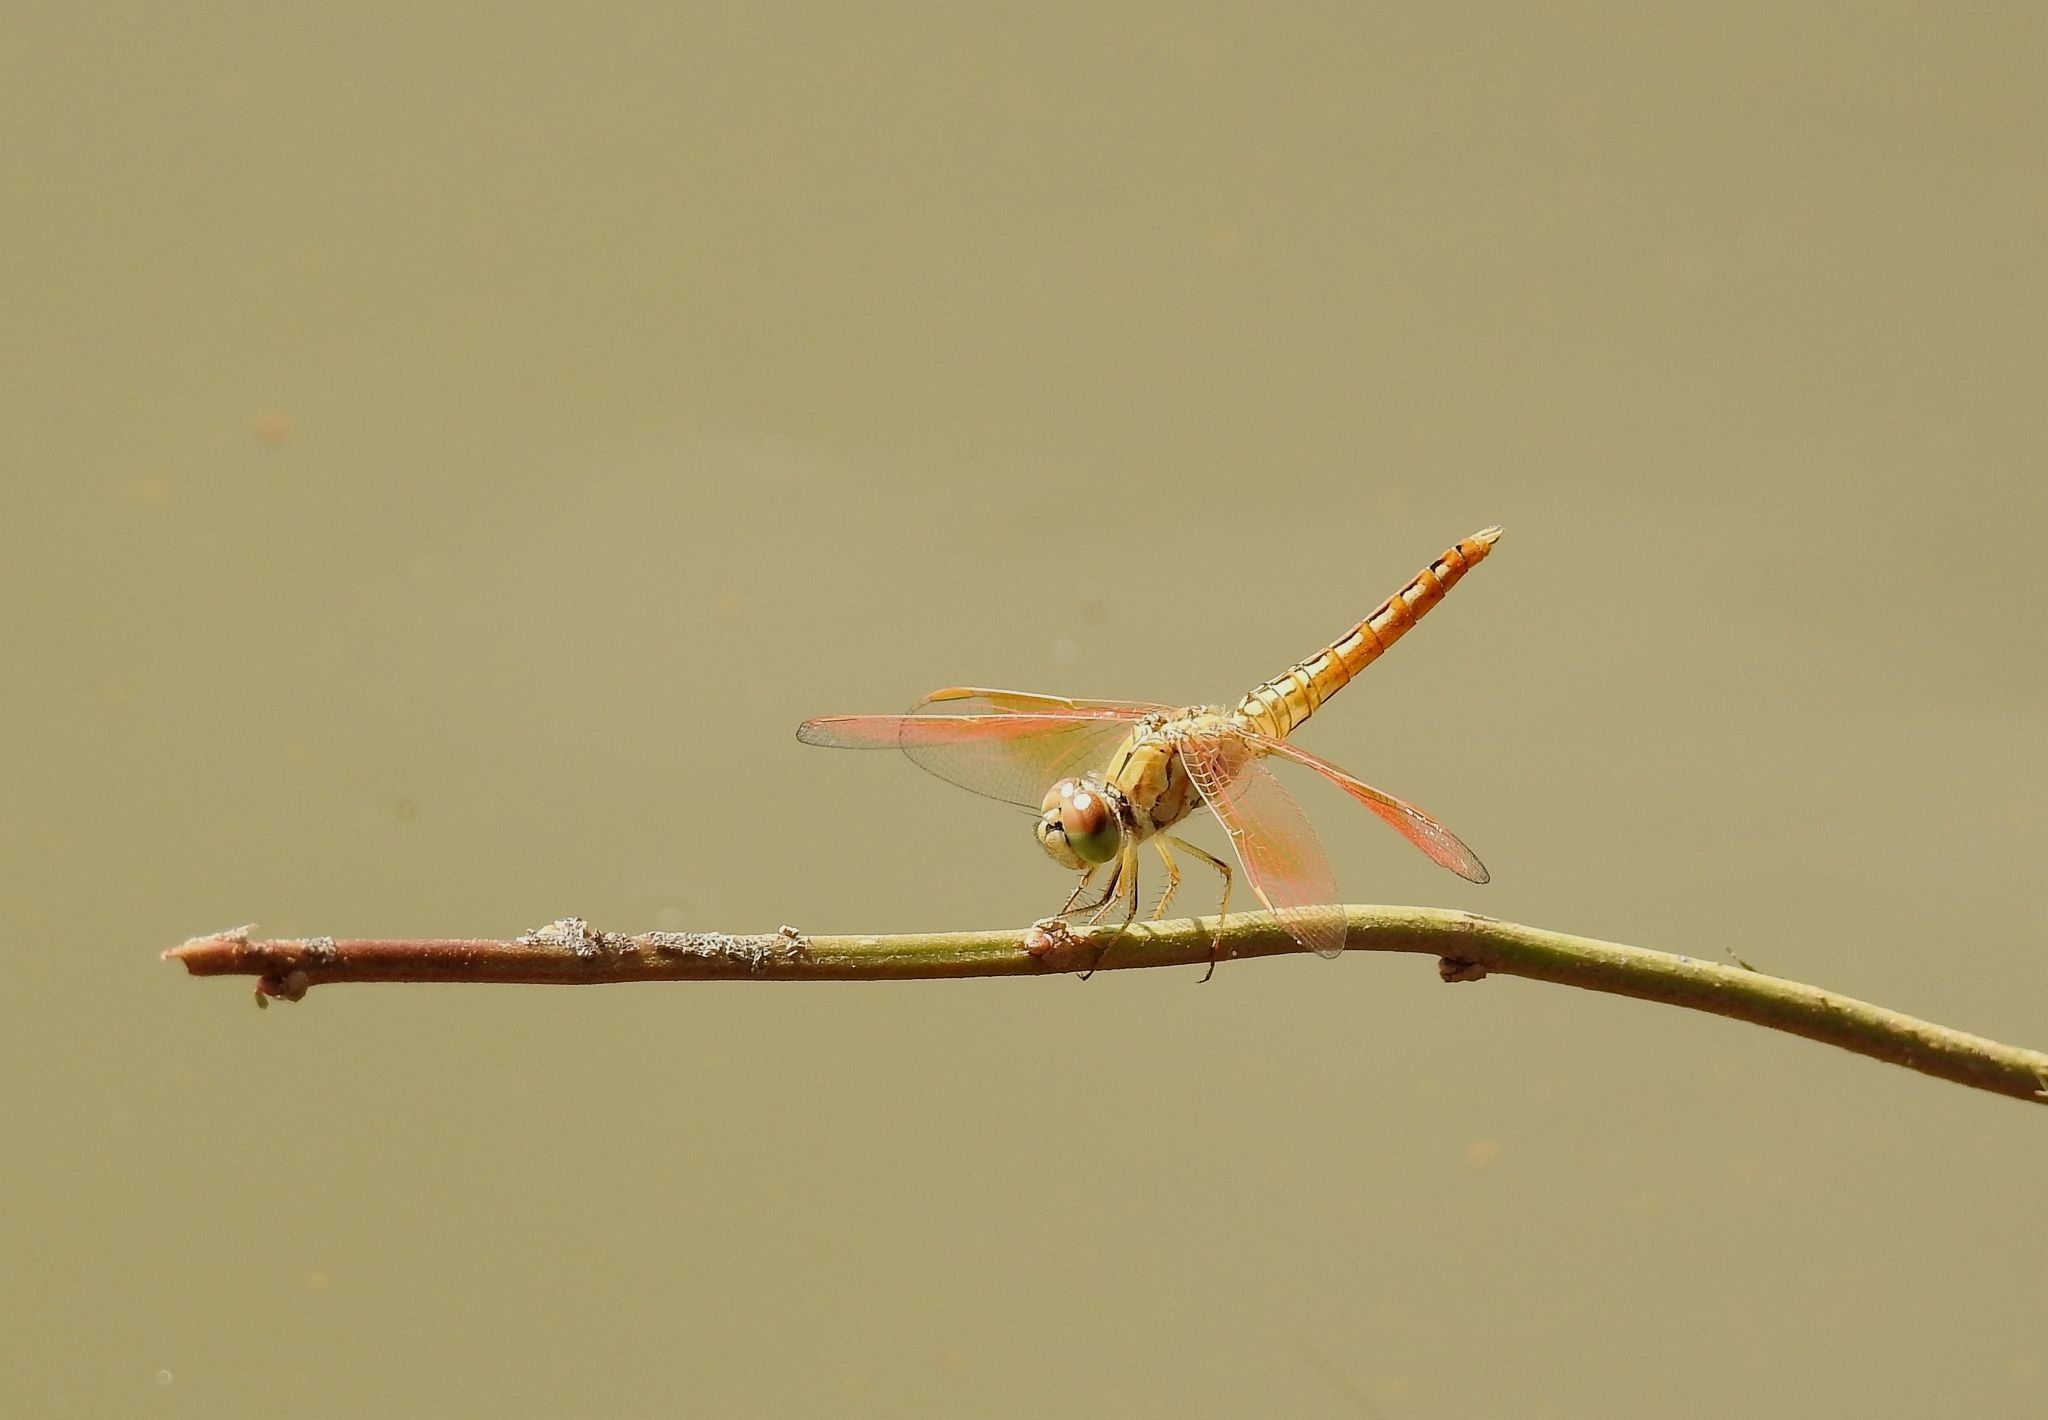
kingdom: Animalia
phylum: Arthropoda
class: Insecta
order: Odonata
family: Libellulidae
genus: Brachythemis
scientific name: Brachythemis contaminata
